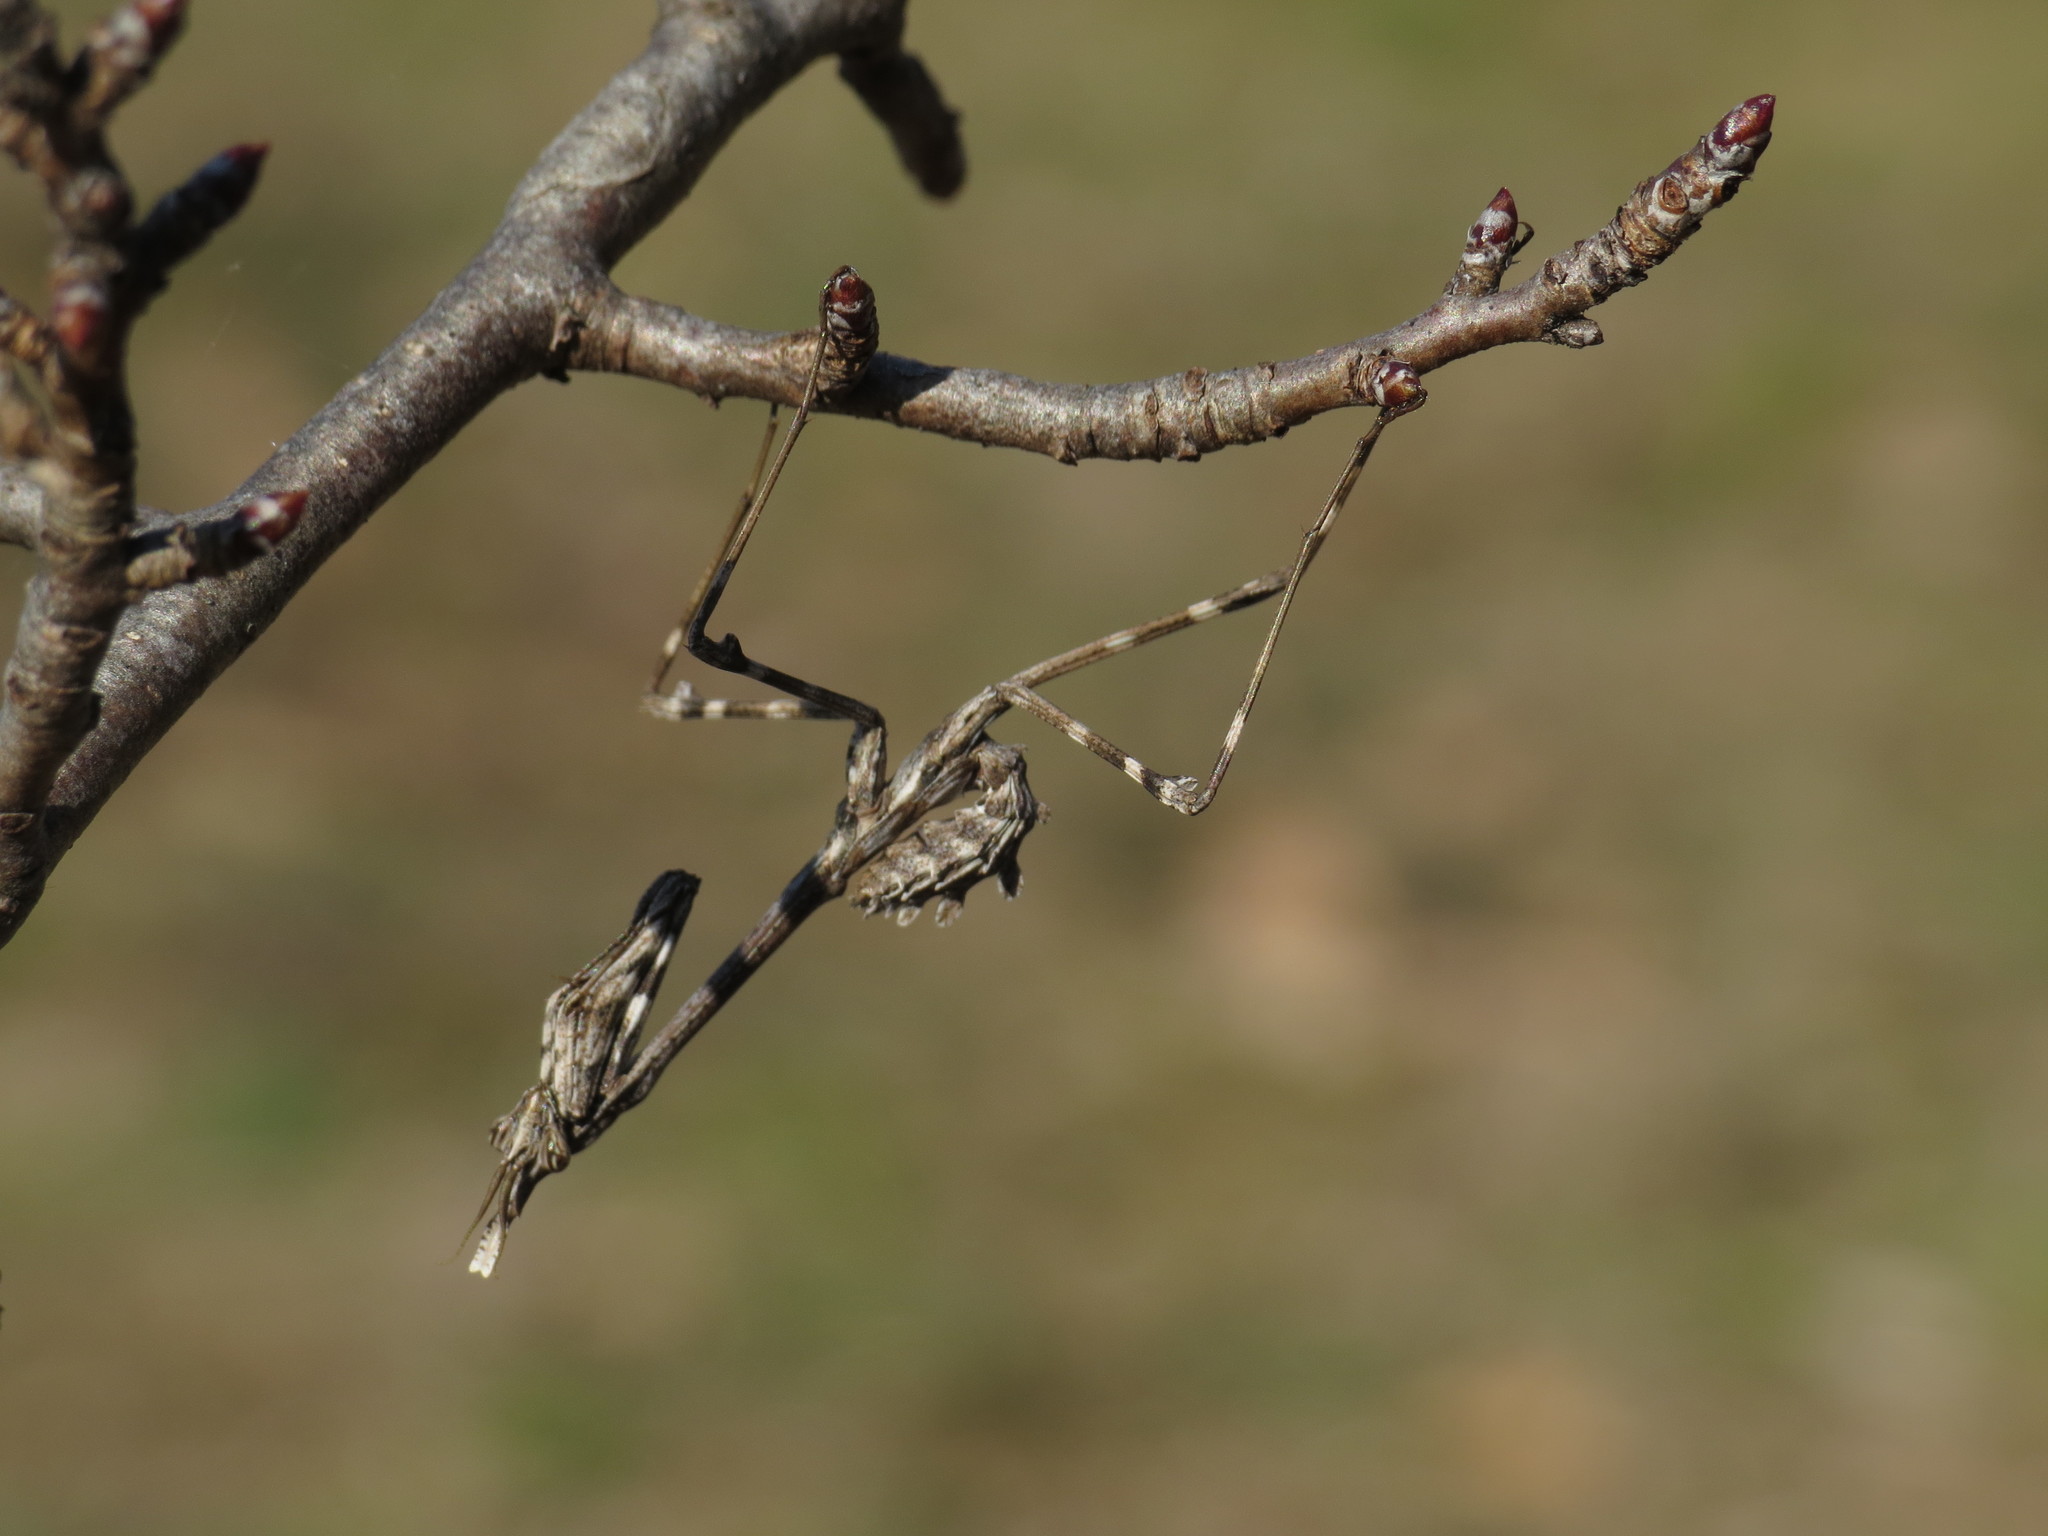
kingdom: Animalia
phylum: Arthropoda
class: Insecta
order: Mantodea
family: Empusidae
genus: Empusa
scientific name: Empusa pennata
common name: Conehead mantis
